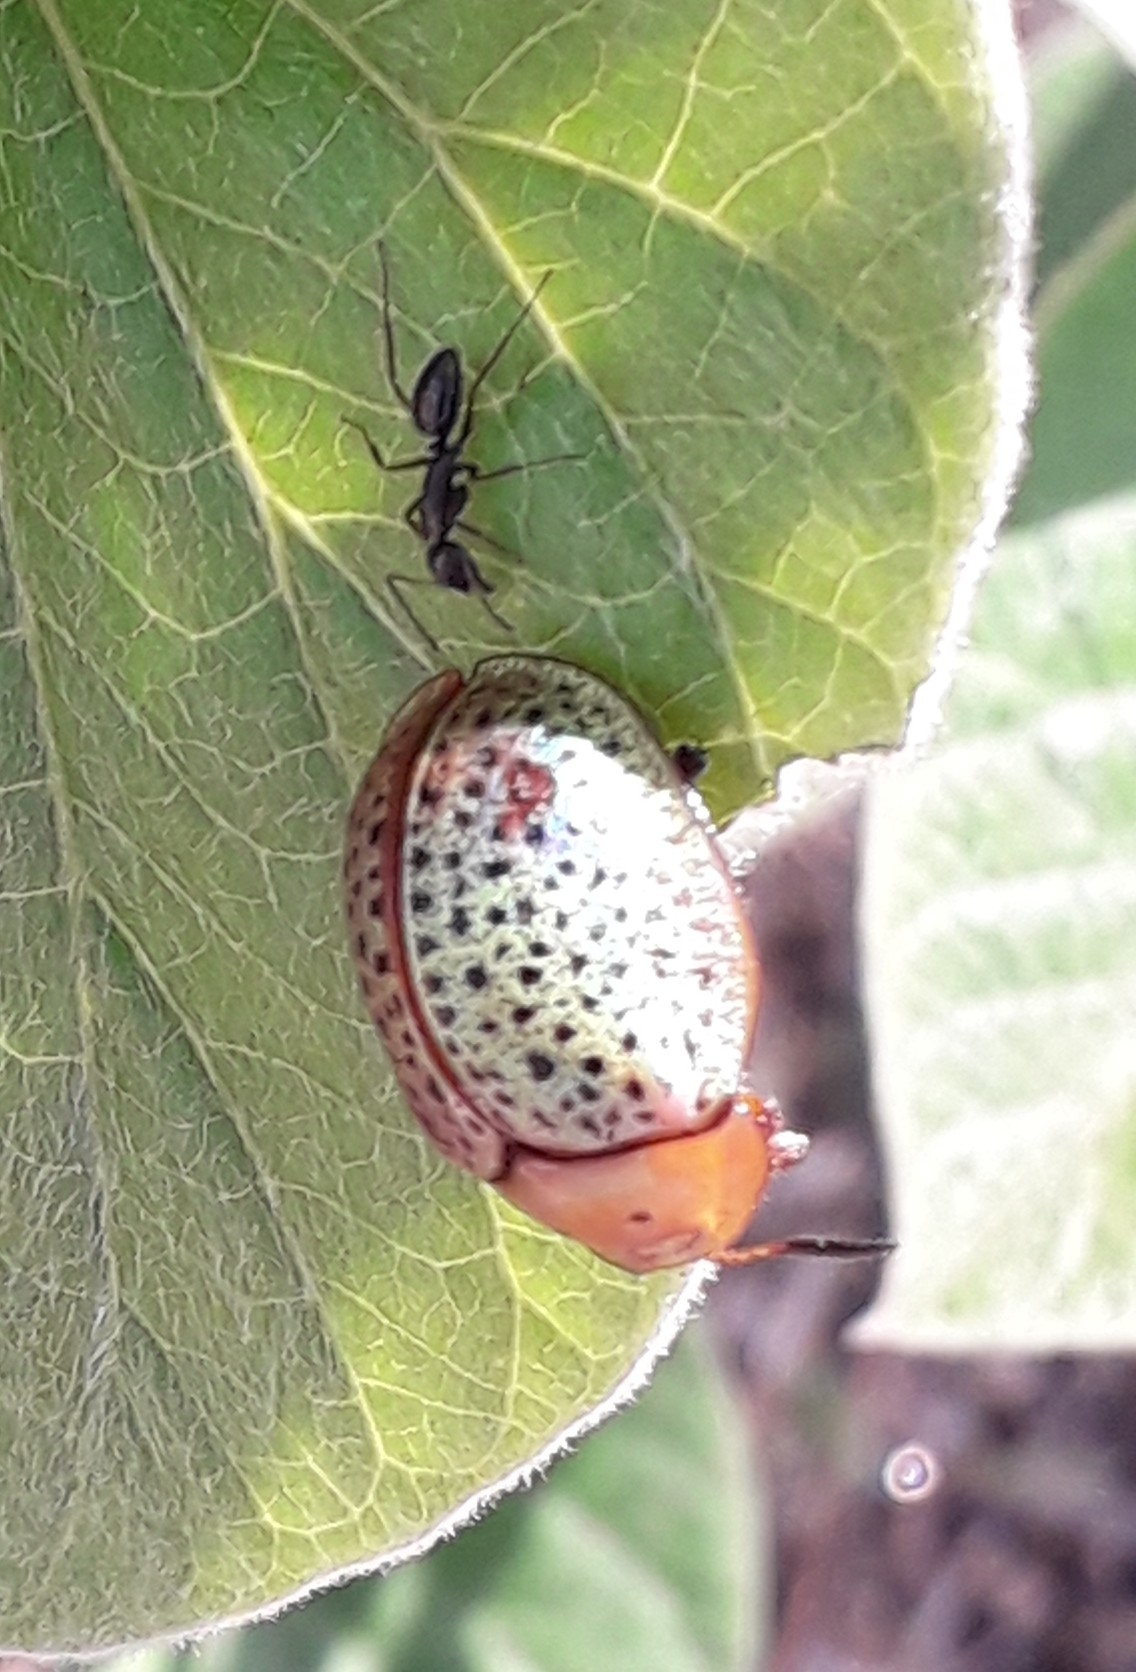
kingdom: Animalia
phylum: Arthropoda
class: Insecta
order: Coleoptera
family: Chrysomelidae
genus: Chelymorpha
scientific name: Chelymorpha varians
